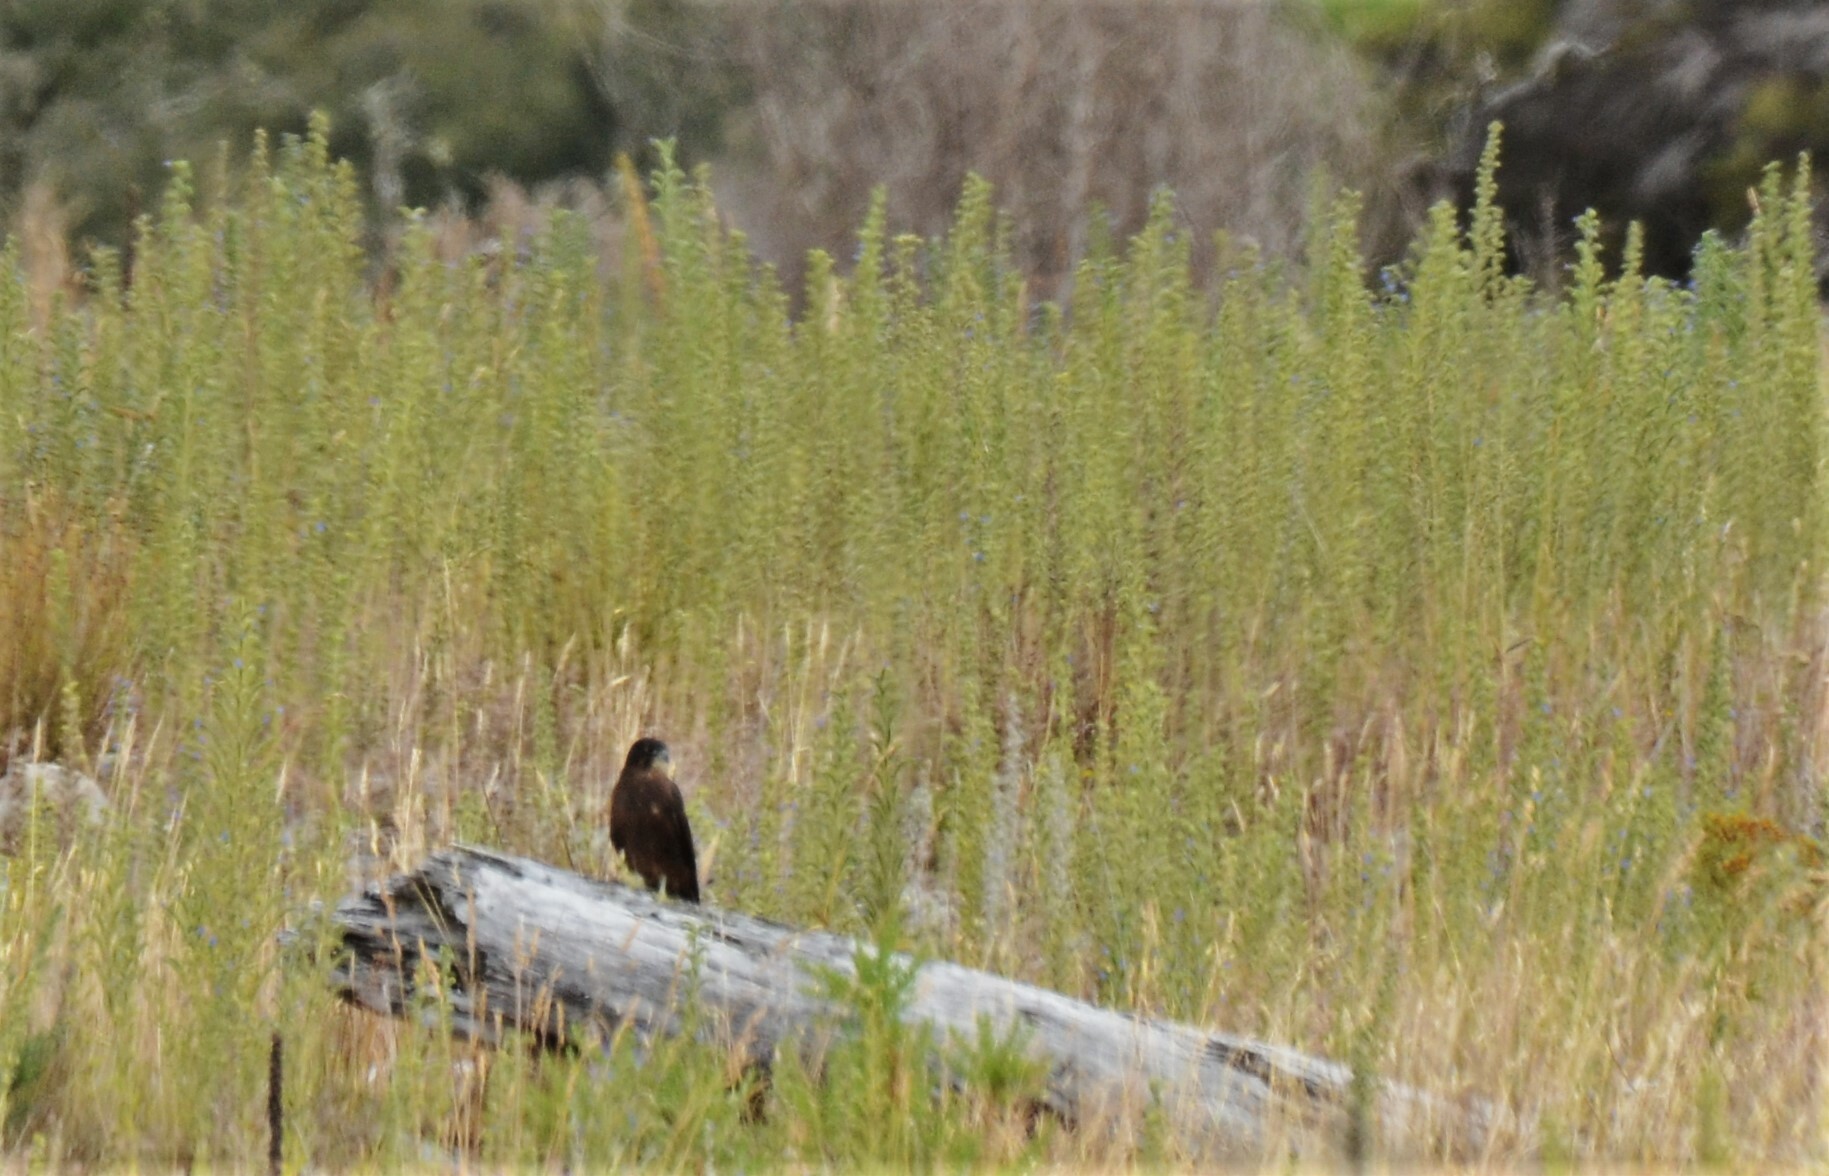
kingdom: Animalia
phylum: Chordata
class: Aves
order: Falconiformes
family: Falconidae
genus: Falco
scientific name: Falco novaeseelandiae
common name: New zealand falcon
